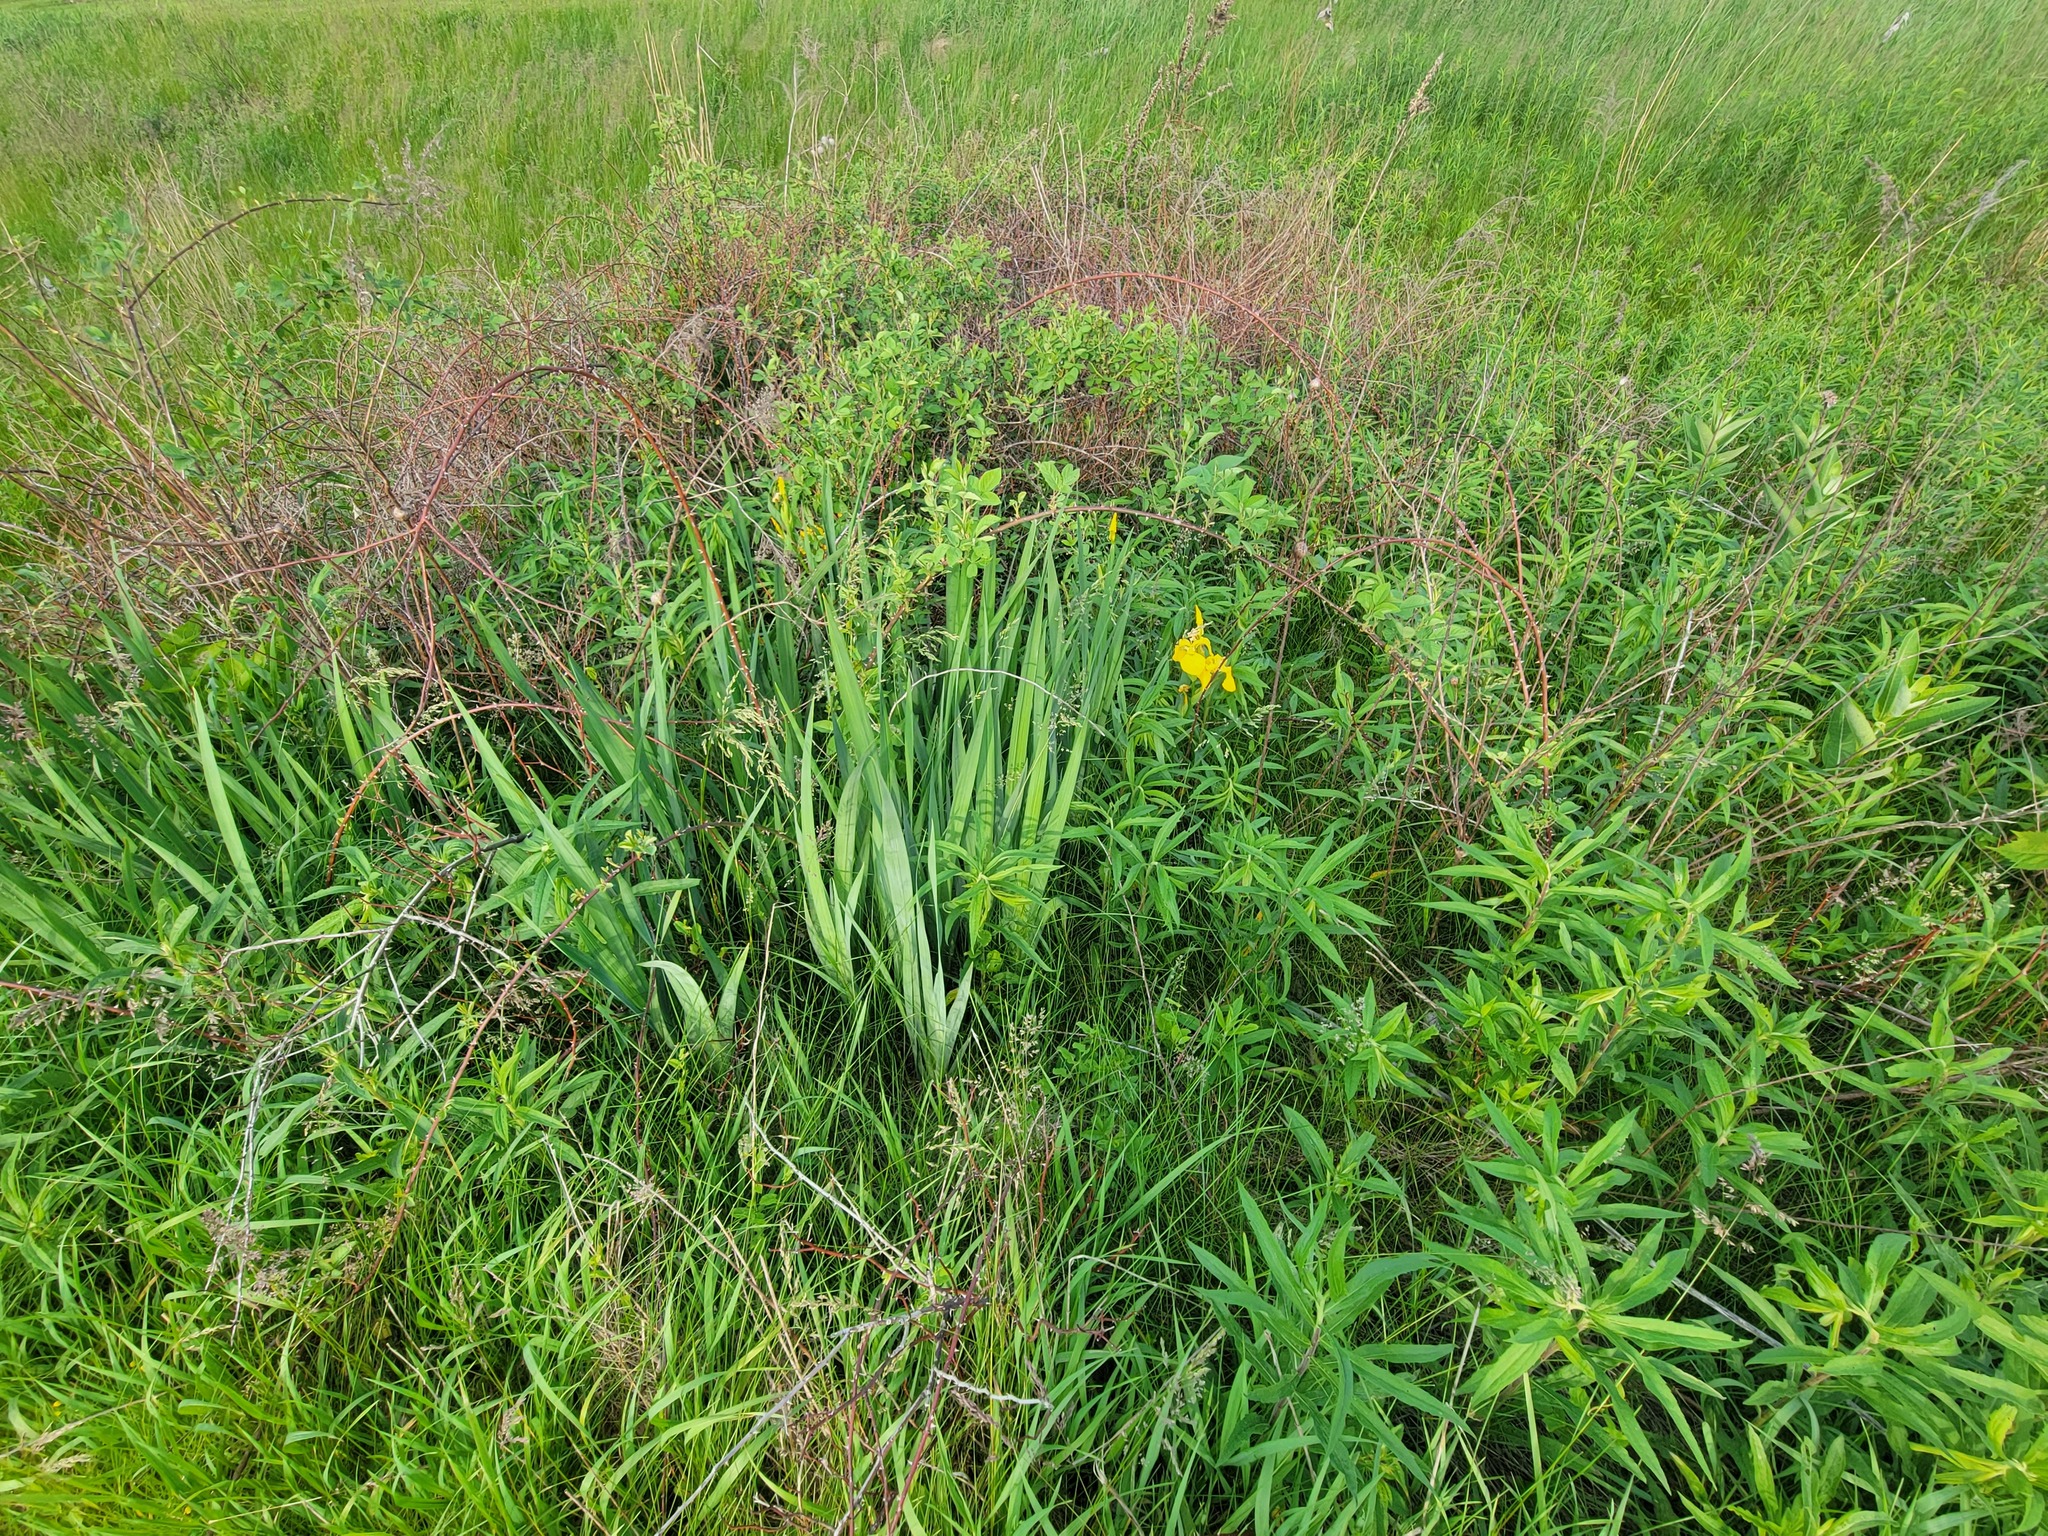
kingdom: Plantae
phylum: Tracheophyta
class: Liliopsida
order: Asparagales
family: Iridaceae
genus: Iris
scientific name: Iris pseudacorus
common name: Yellow flag
